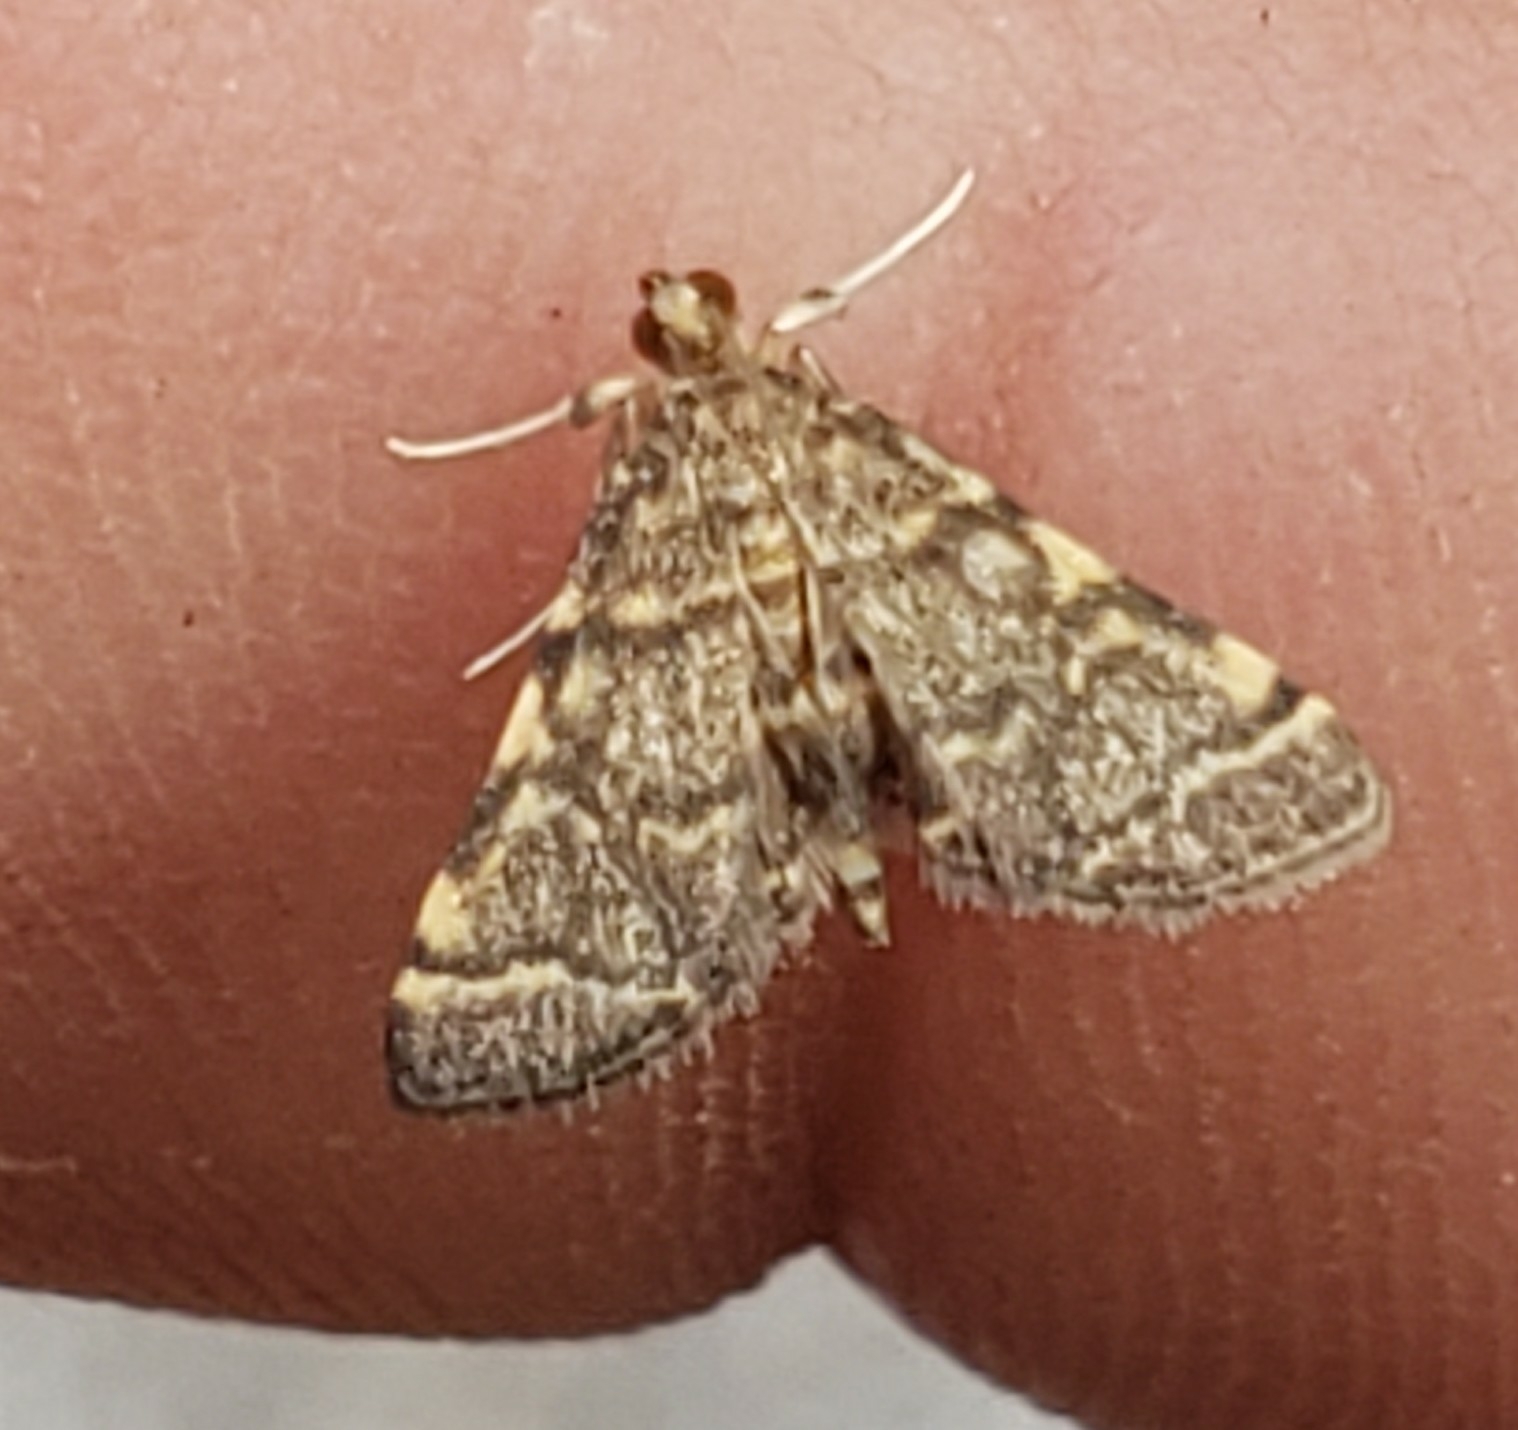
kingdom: Animalia
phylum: Arthropoda
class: Insecta
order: Lepidoptera
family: Crambidae
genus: Anageshna
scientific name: Anageshna primordialis
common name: Yellow-spotted webworm moth
